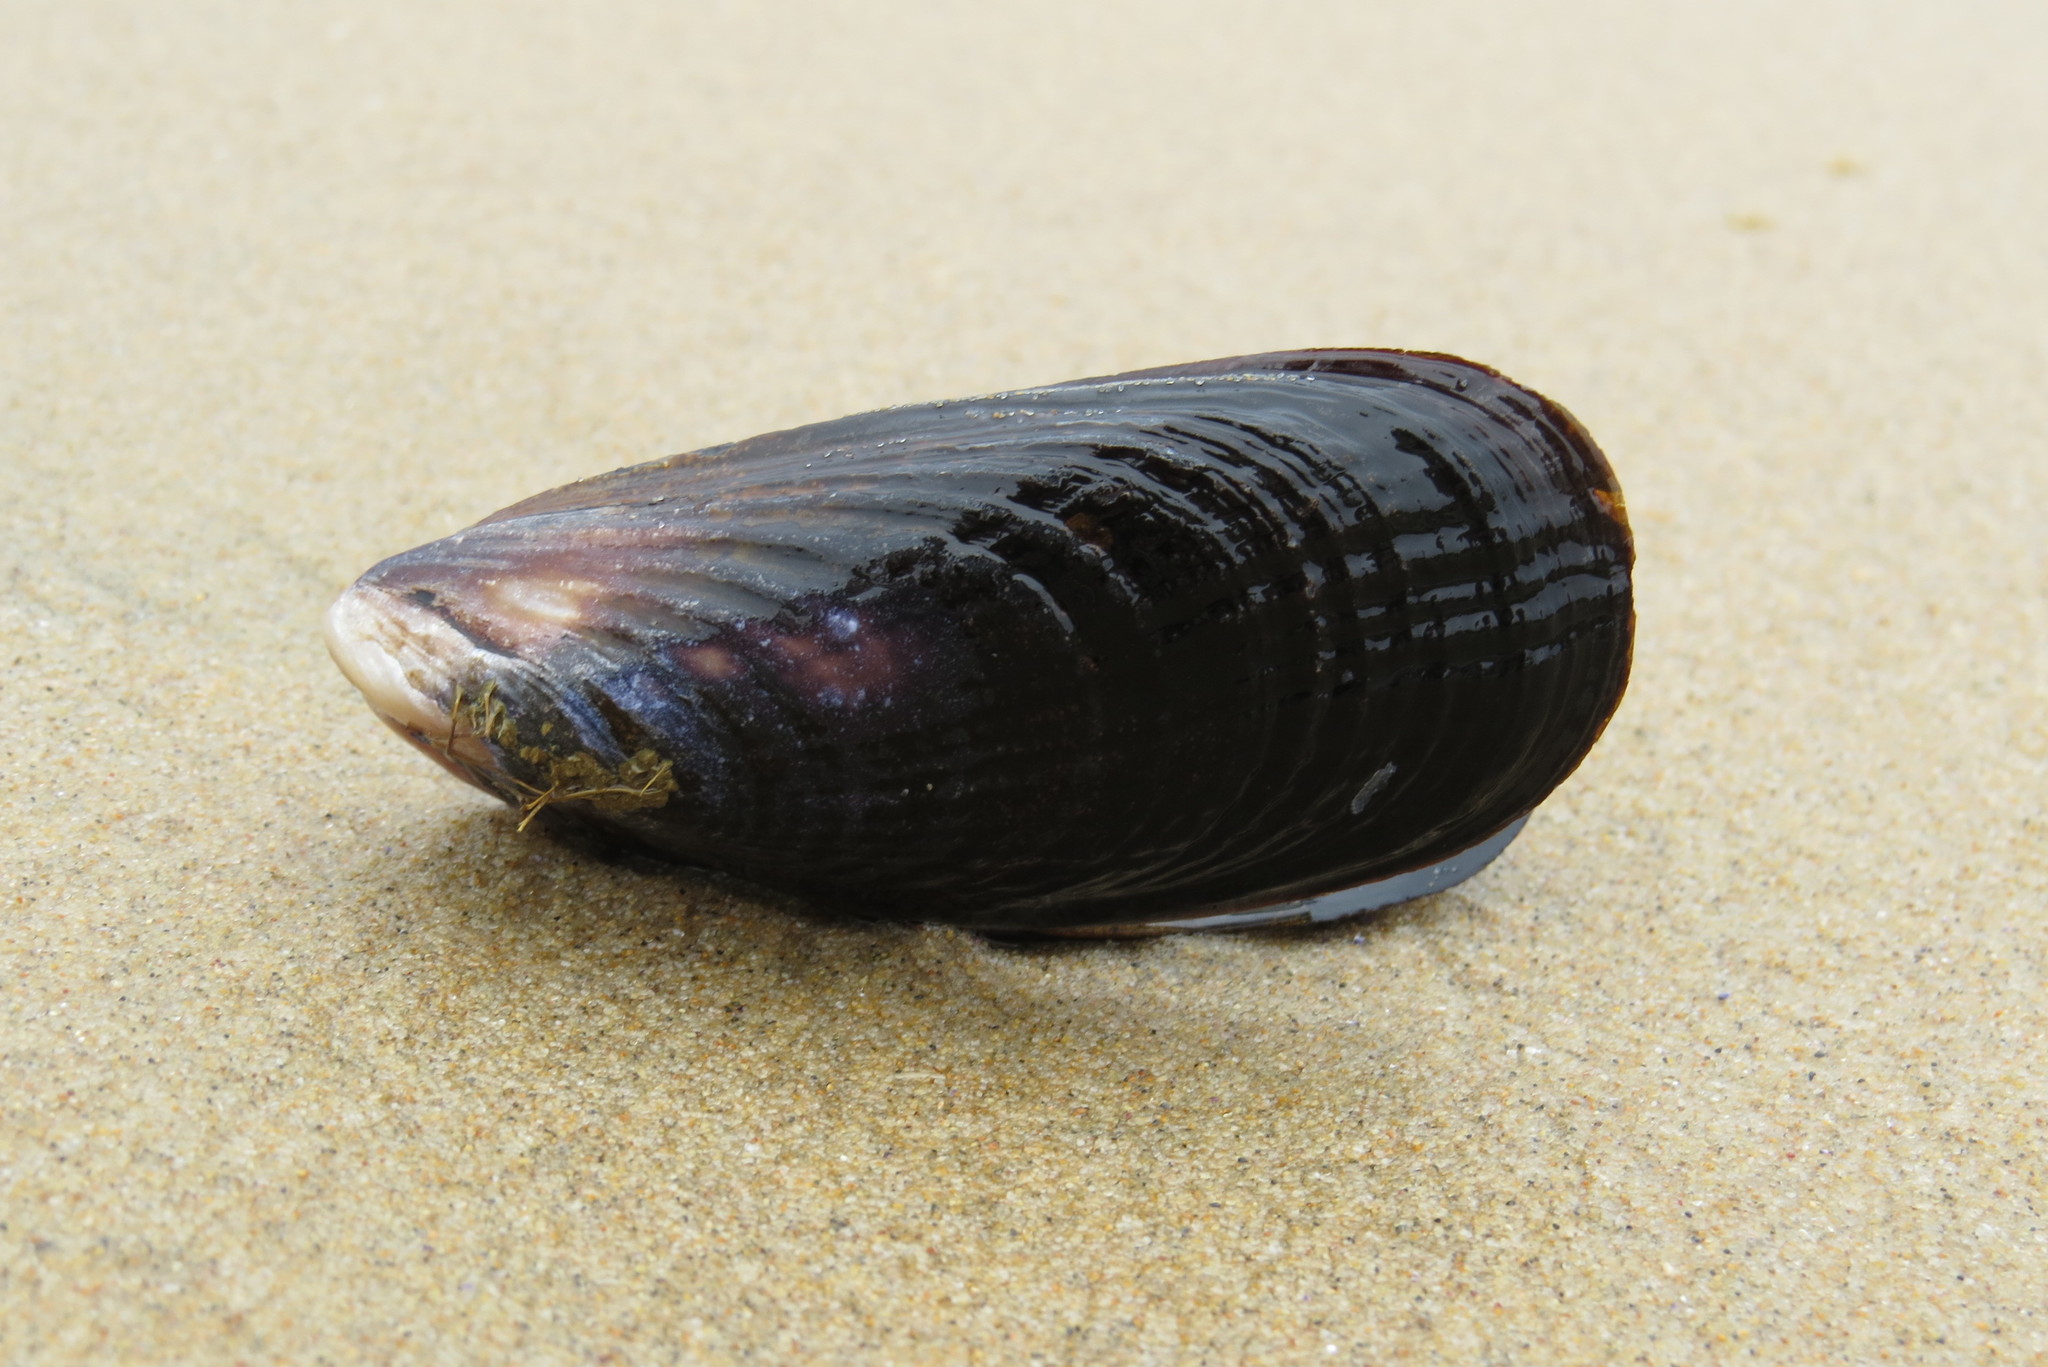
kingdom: Animalia
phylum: Mollusca
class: Bivalvia
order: Mytilida
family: Mytilidae
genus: Mytilus
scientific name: Mytilus californianus
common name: California mussel
